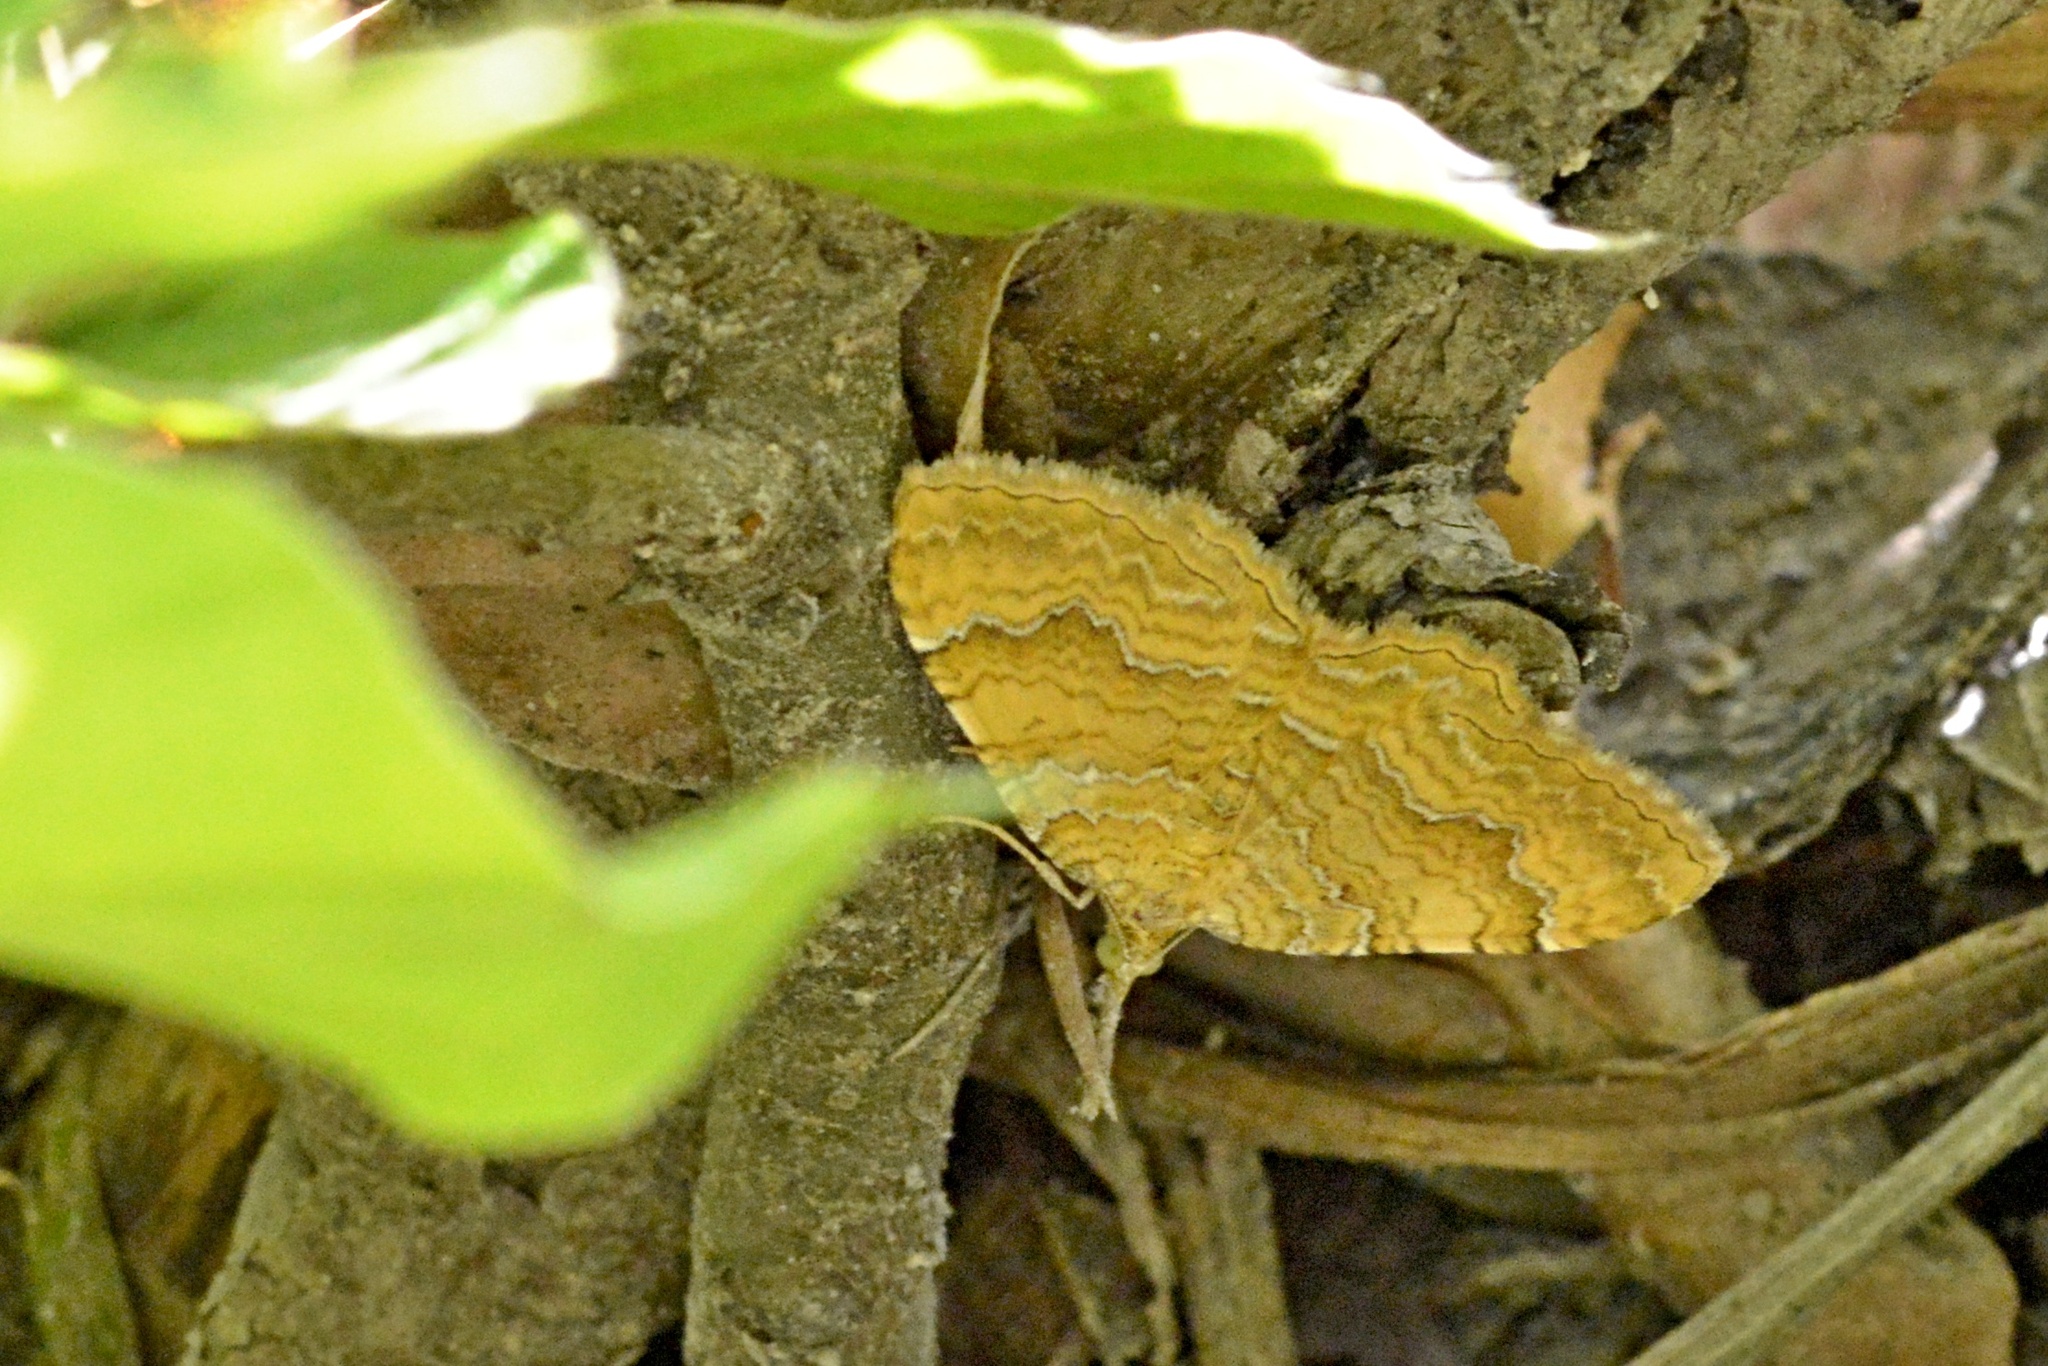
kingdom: Animalia
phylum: Arthropoda
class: Insecta
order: Lepidoptera
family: Geometridae
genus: Camptogramma
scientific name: Camptogramma bilineata
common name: Yellow shell
